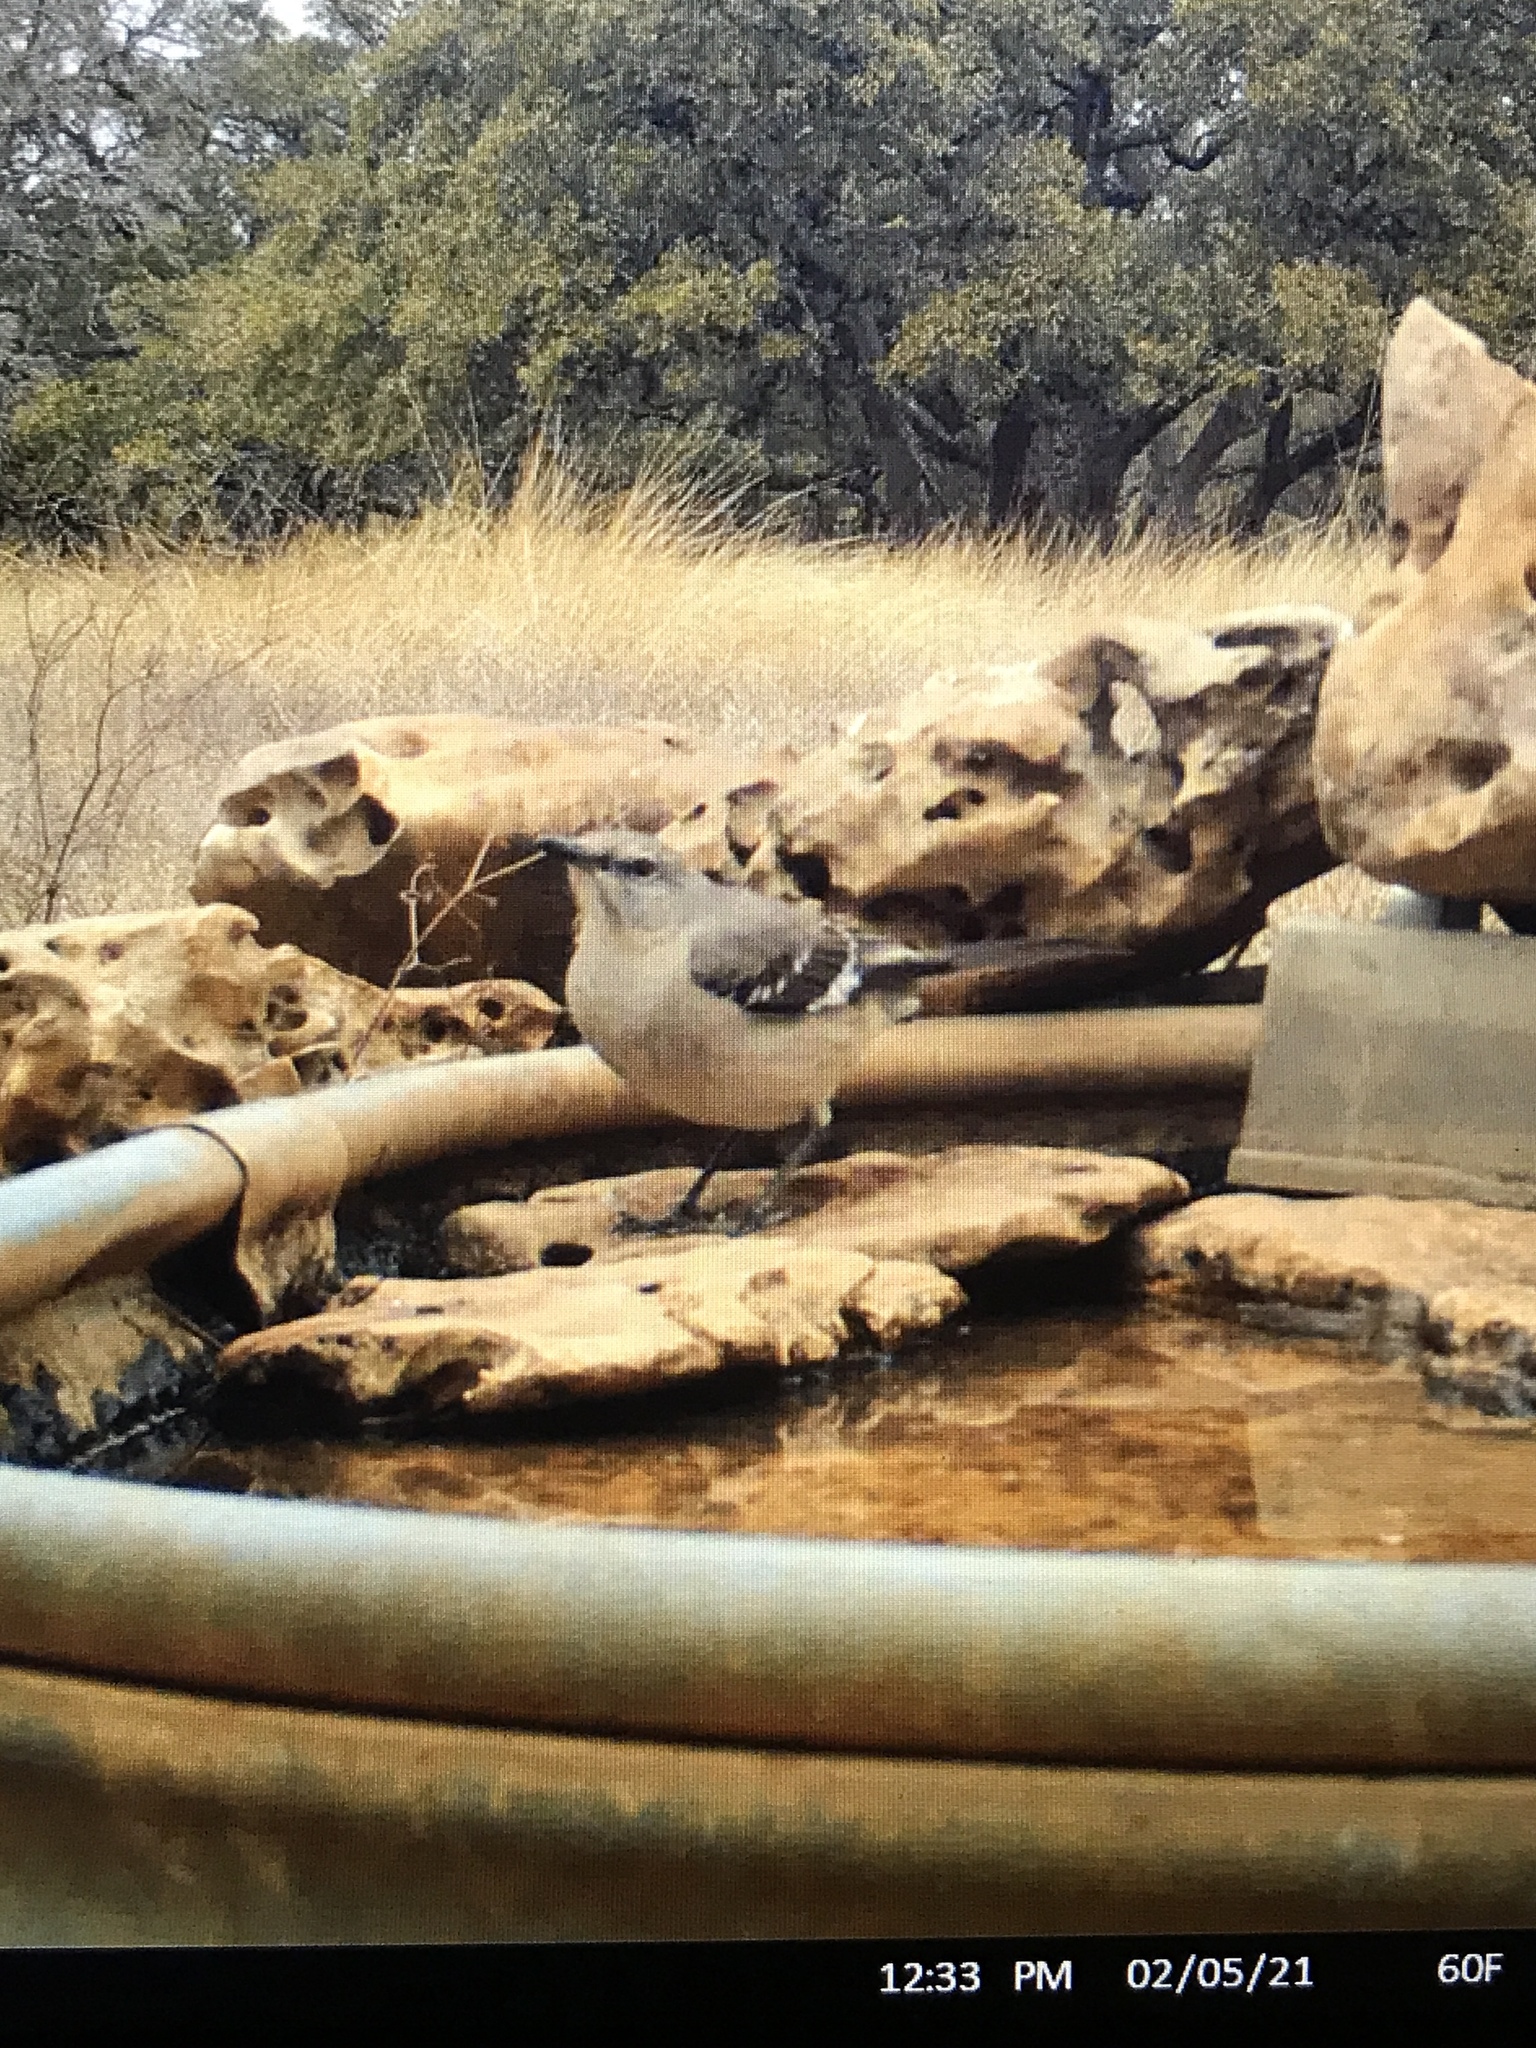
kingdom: Animalia
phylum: Chordata
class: Aves
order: Passeriformes
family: Mimidae
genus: Mimus
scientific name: Mimus polyglottos
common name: Northern mockingbird
